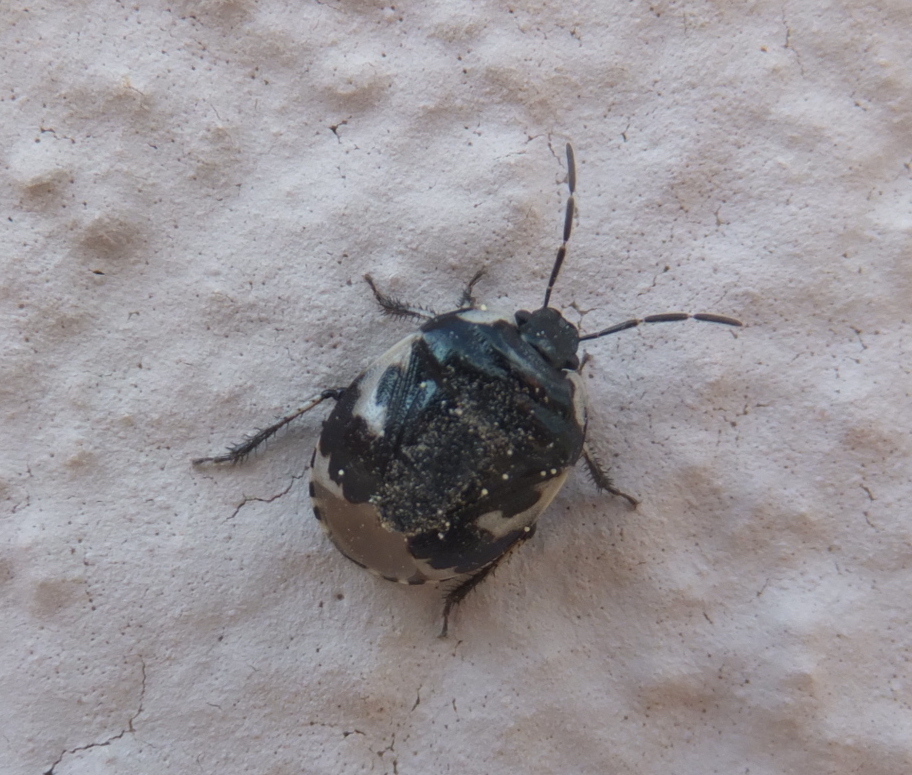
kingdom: Animalia
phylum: Arthropoda
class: Insecta
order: Hemiptera
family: Cydnidae
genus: Tritomegas
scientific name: Tritomegas bicolor
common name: Pied shieldbug
